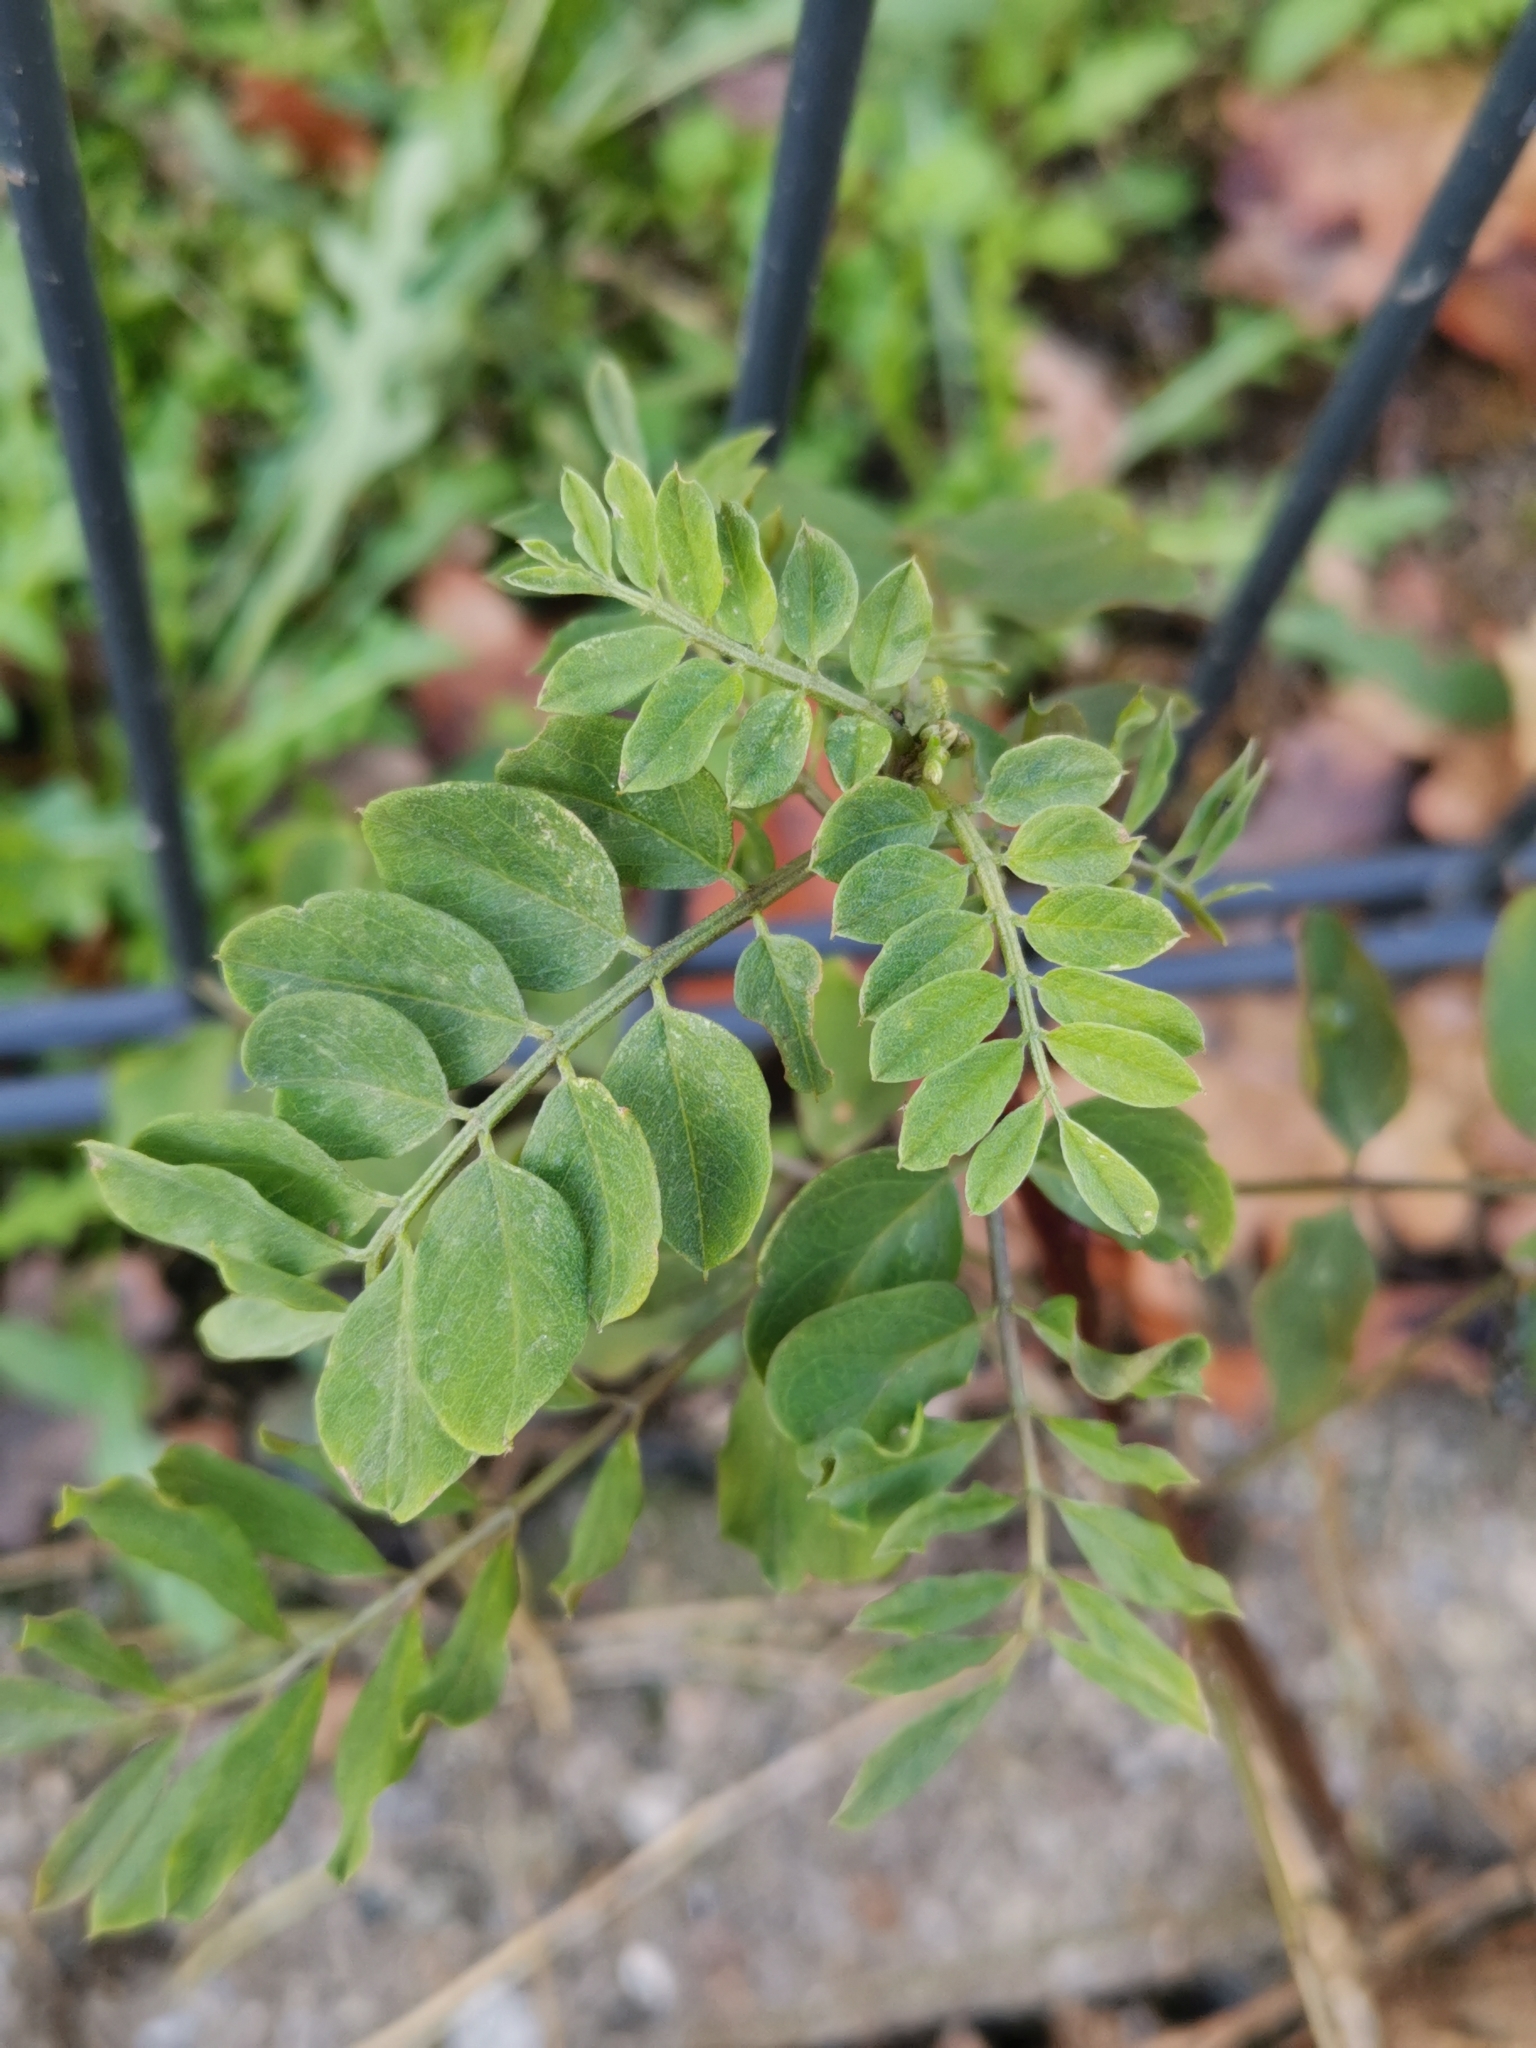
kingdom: Plantae
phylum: Tracheophyta
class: Magnoliopsida
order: Fabales
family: Fabaceae
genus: Robinia
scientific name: Robinia pseudoacacia
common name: Black locust
